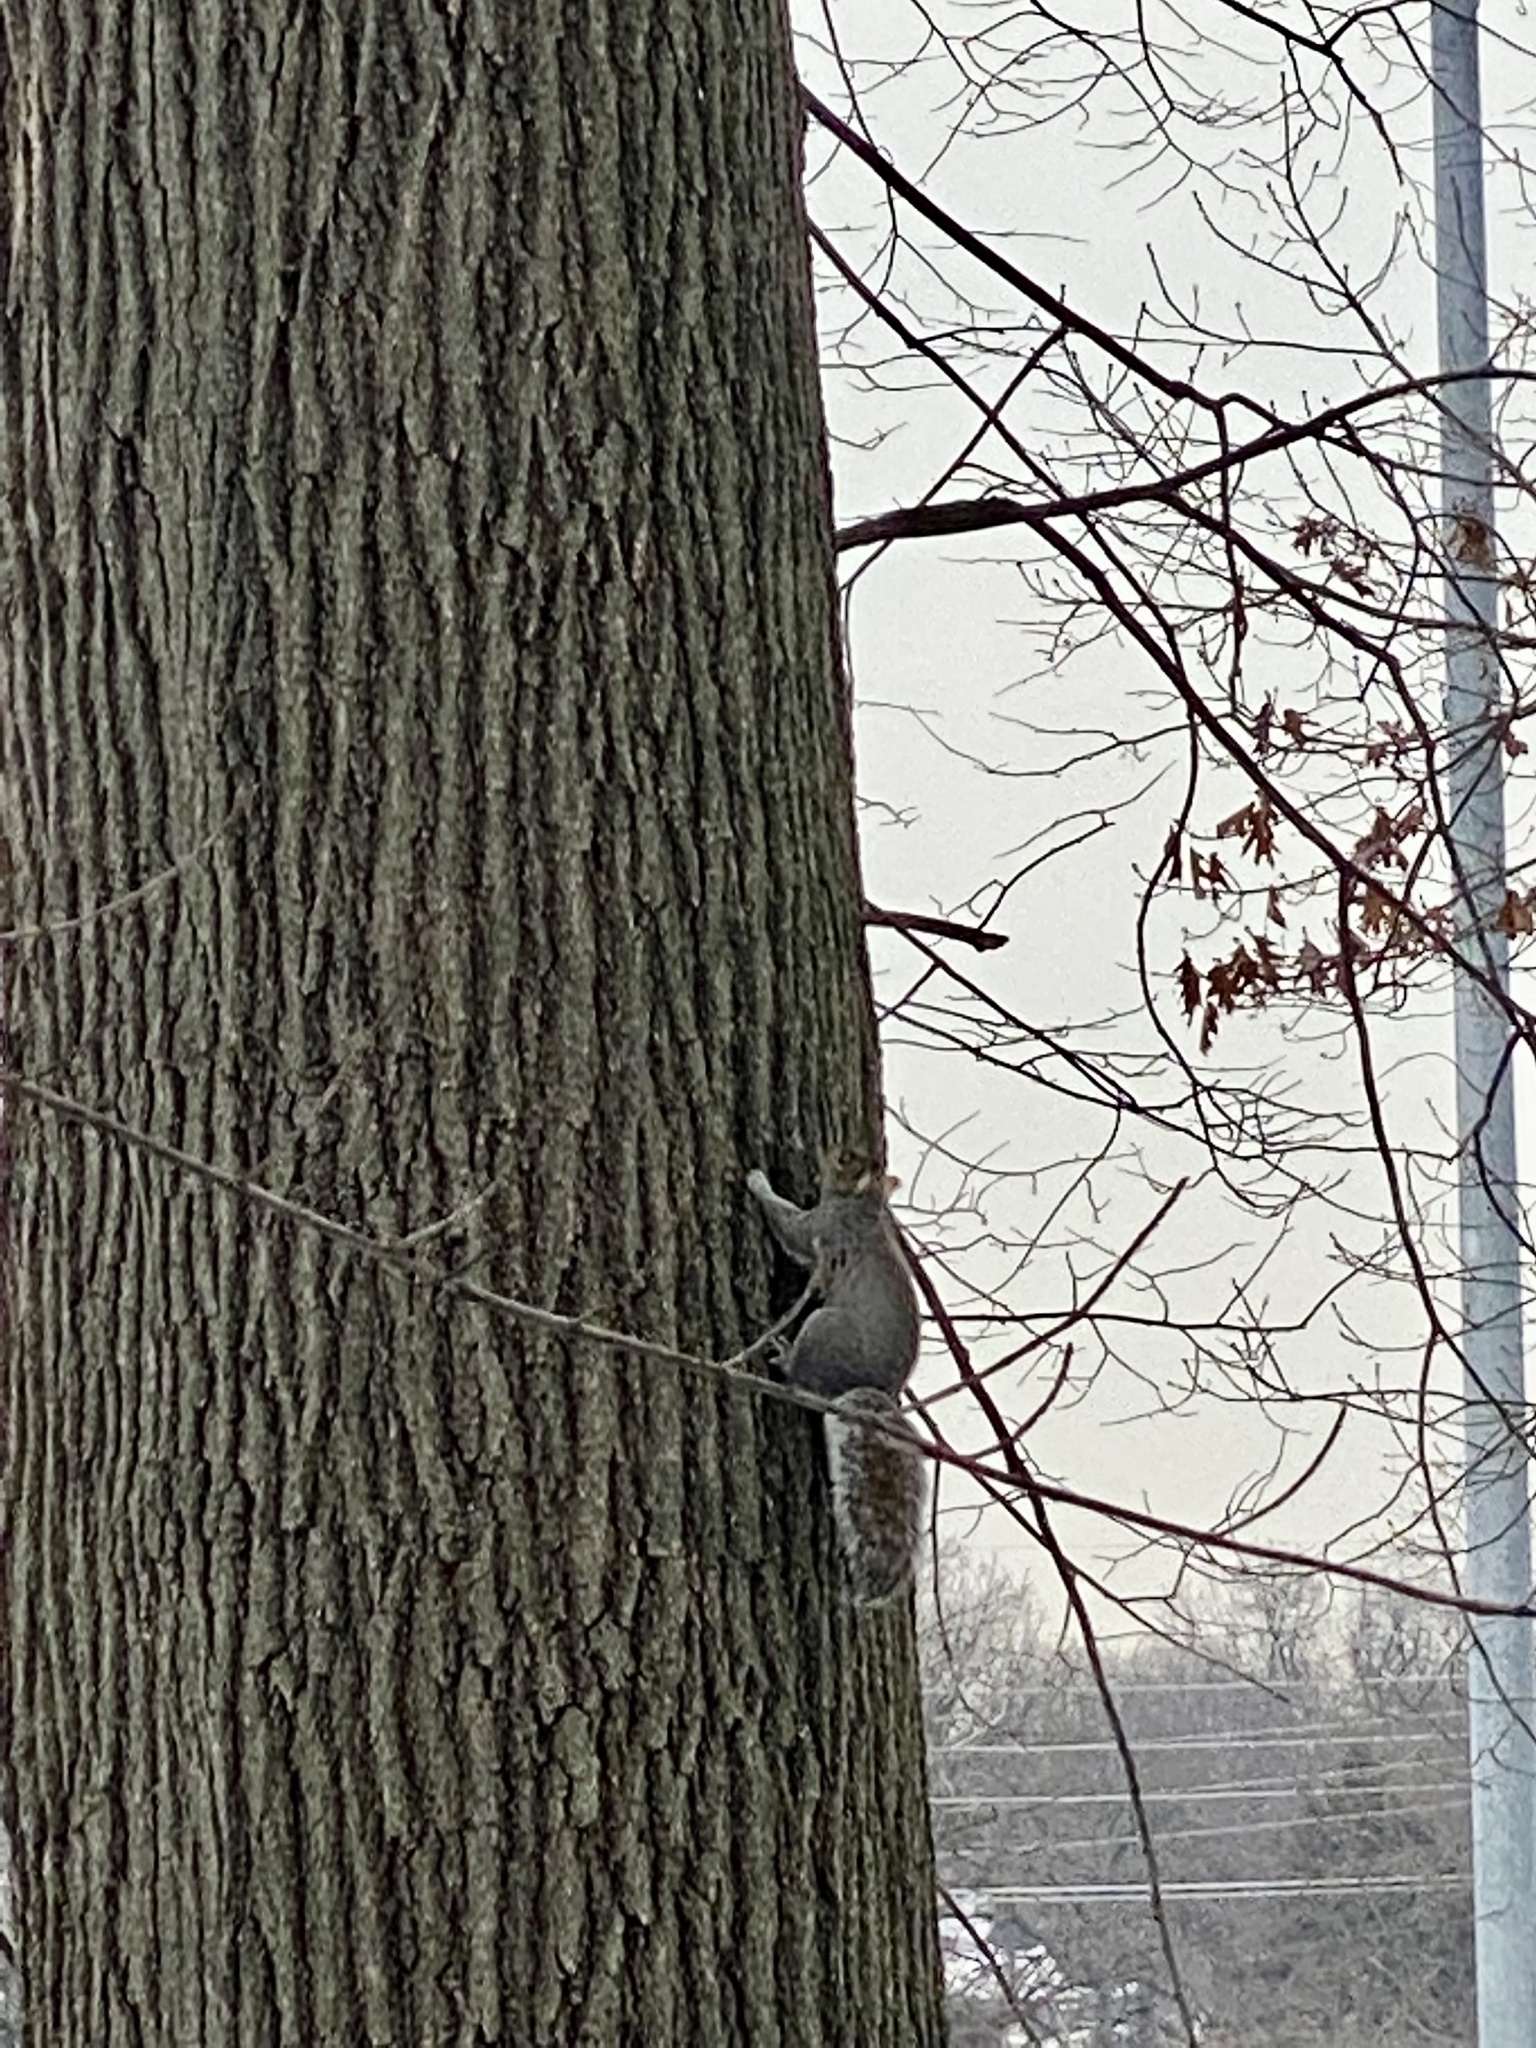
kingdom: Animalia
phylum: Chordata
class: Mammalia
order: Rodentia
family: Sciuridae
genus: Sciurus
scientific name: Sciurus carolinensis
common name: Eastern gray squirrel
